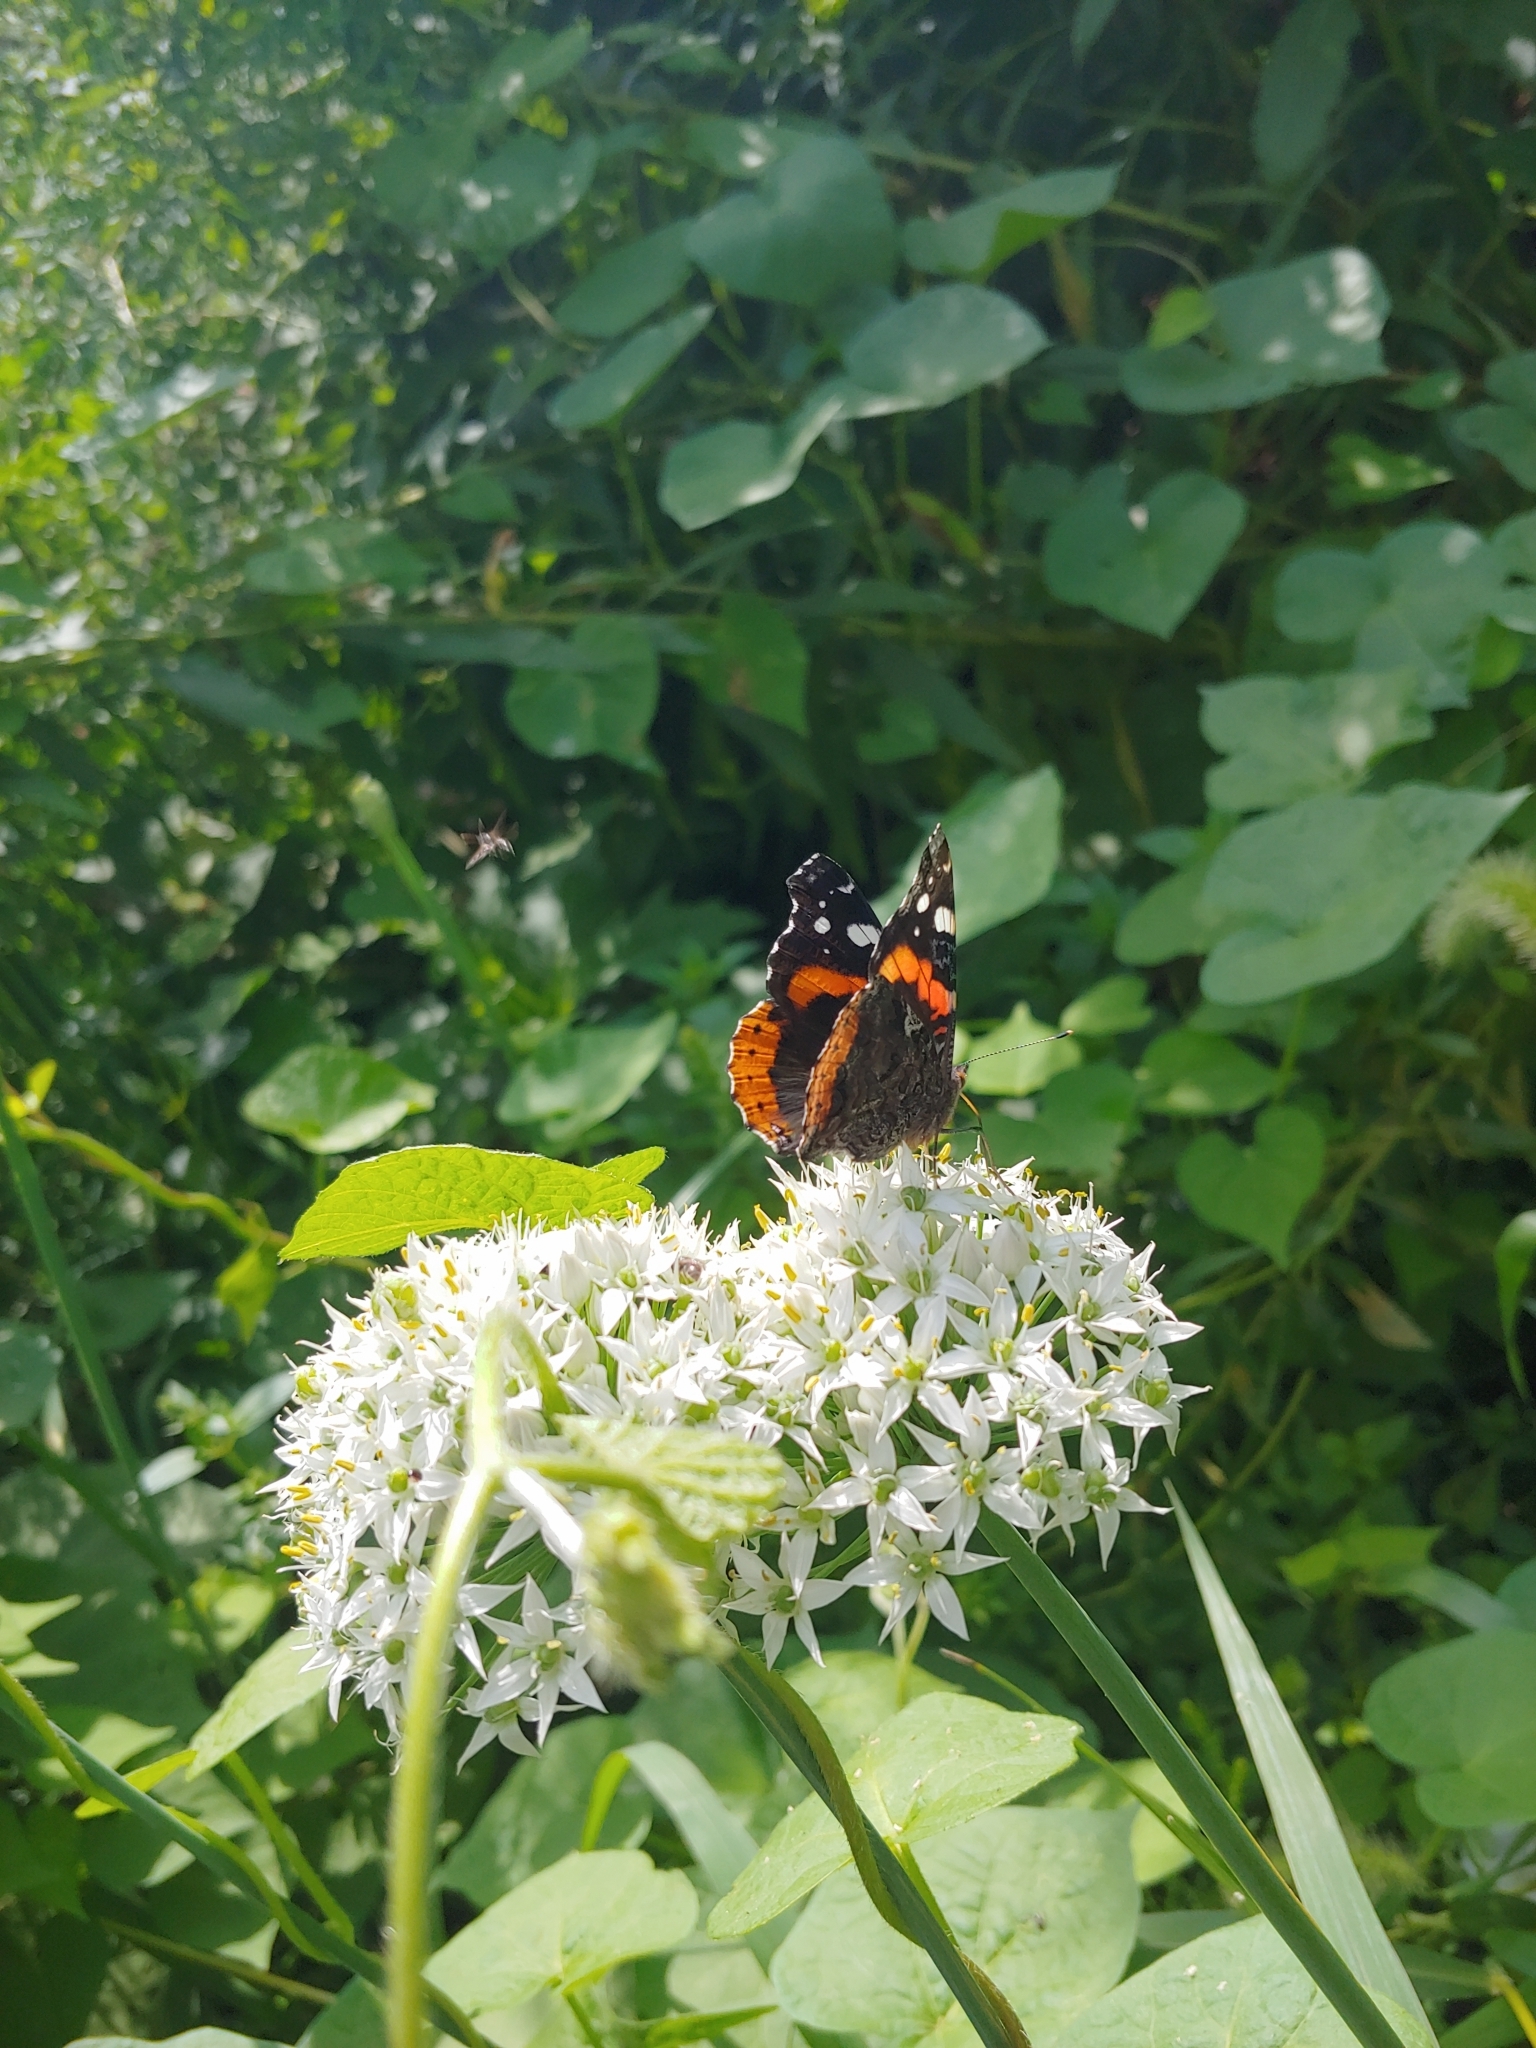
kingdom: Animalia
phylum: Arthropoda
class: Insecta
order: Lepidoptera
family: Nymphalidae
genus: Vanessa
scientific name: Vanessa atalanta
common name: Red admiral
